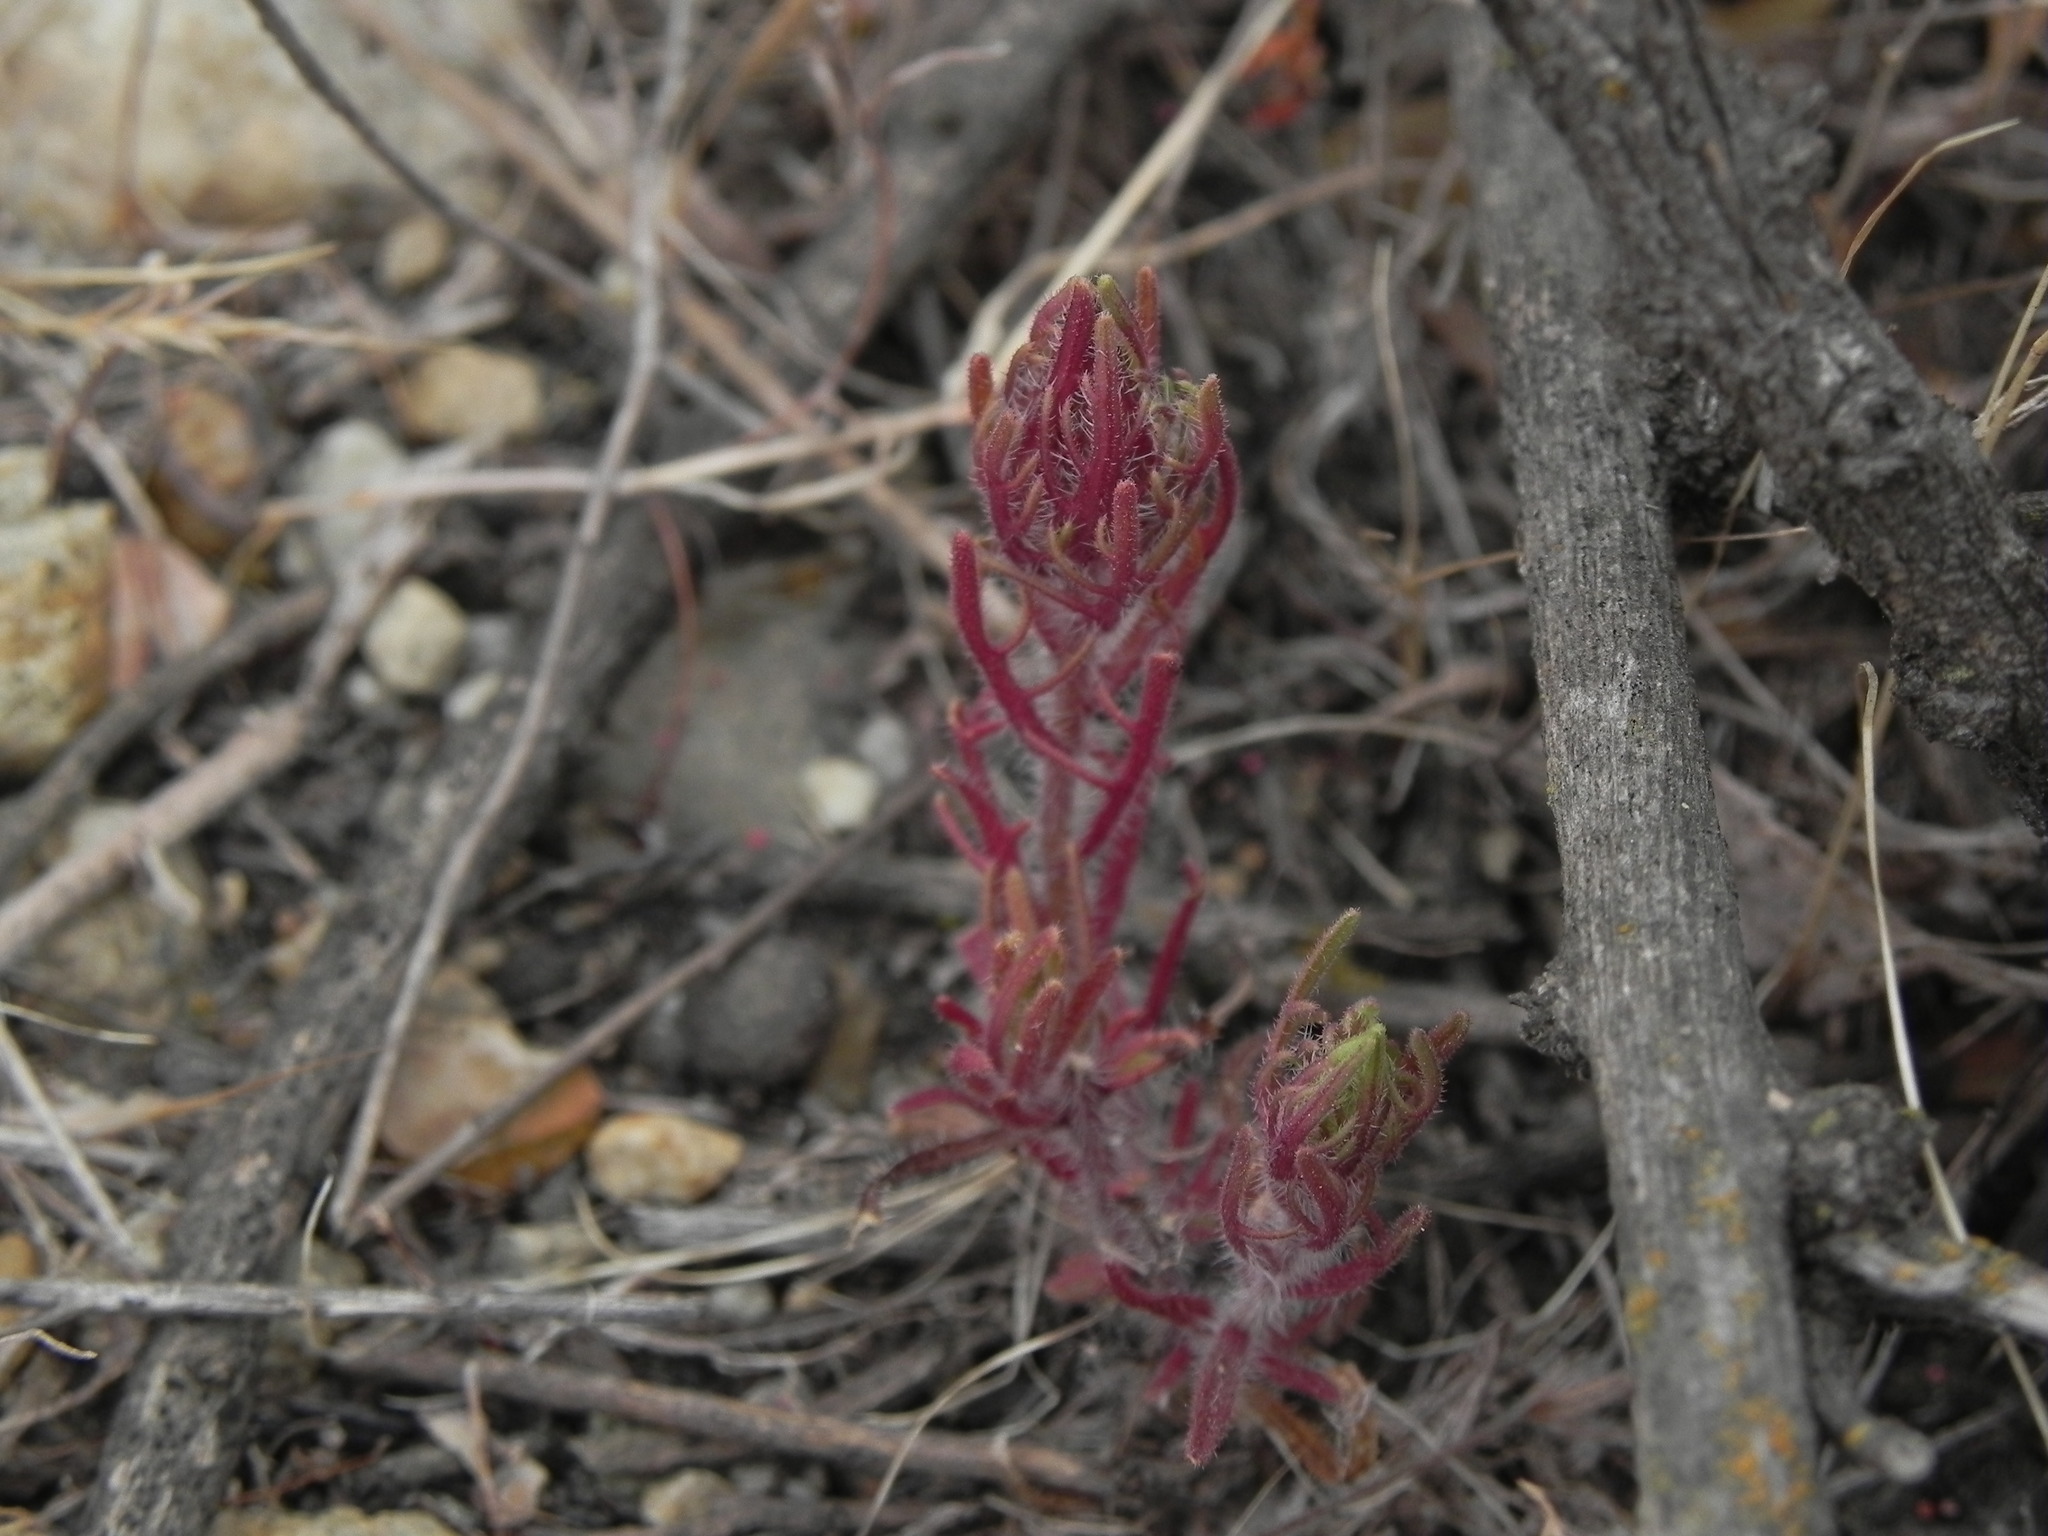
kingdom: Plantae
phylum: Tracheophyta
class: Magnoliopsida
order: Lamiales
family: Orobanchaceae
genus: Dicranostegia
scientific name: Dicranostegia orcuttiana
